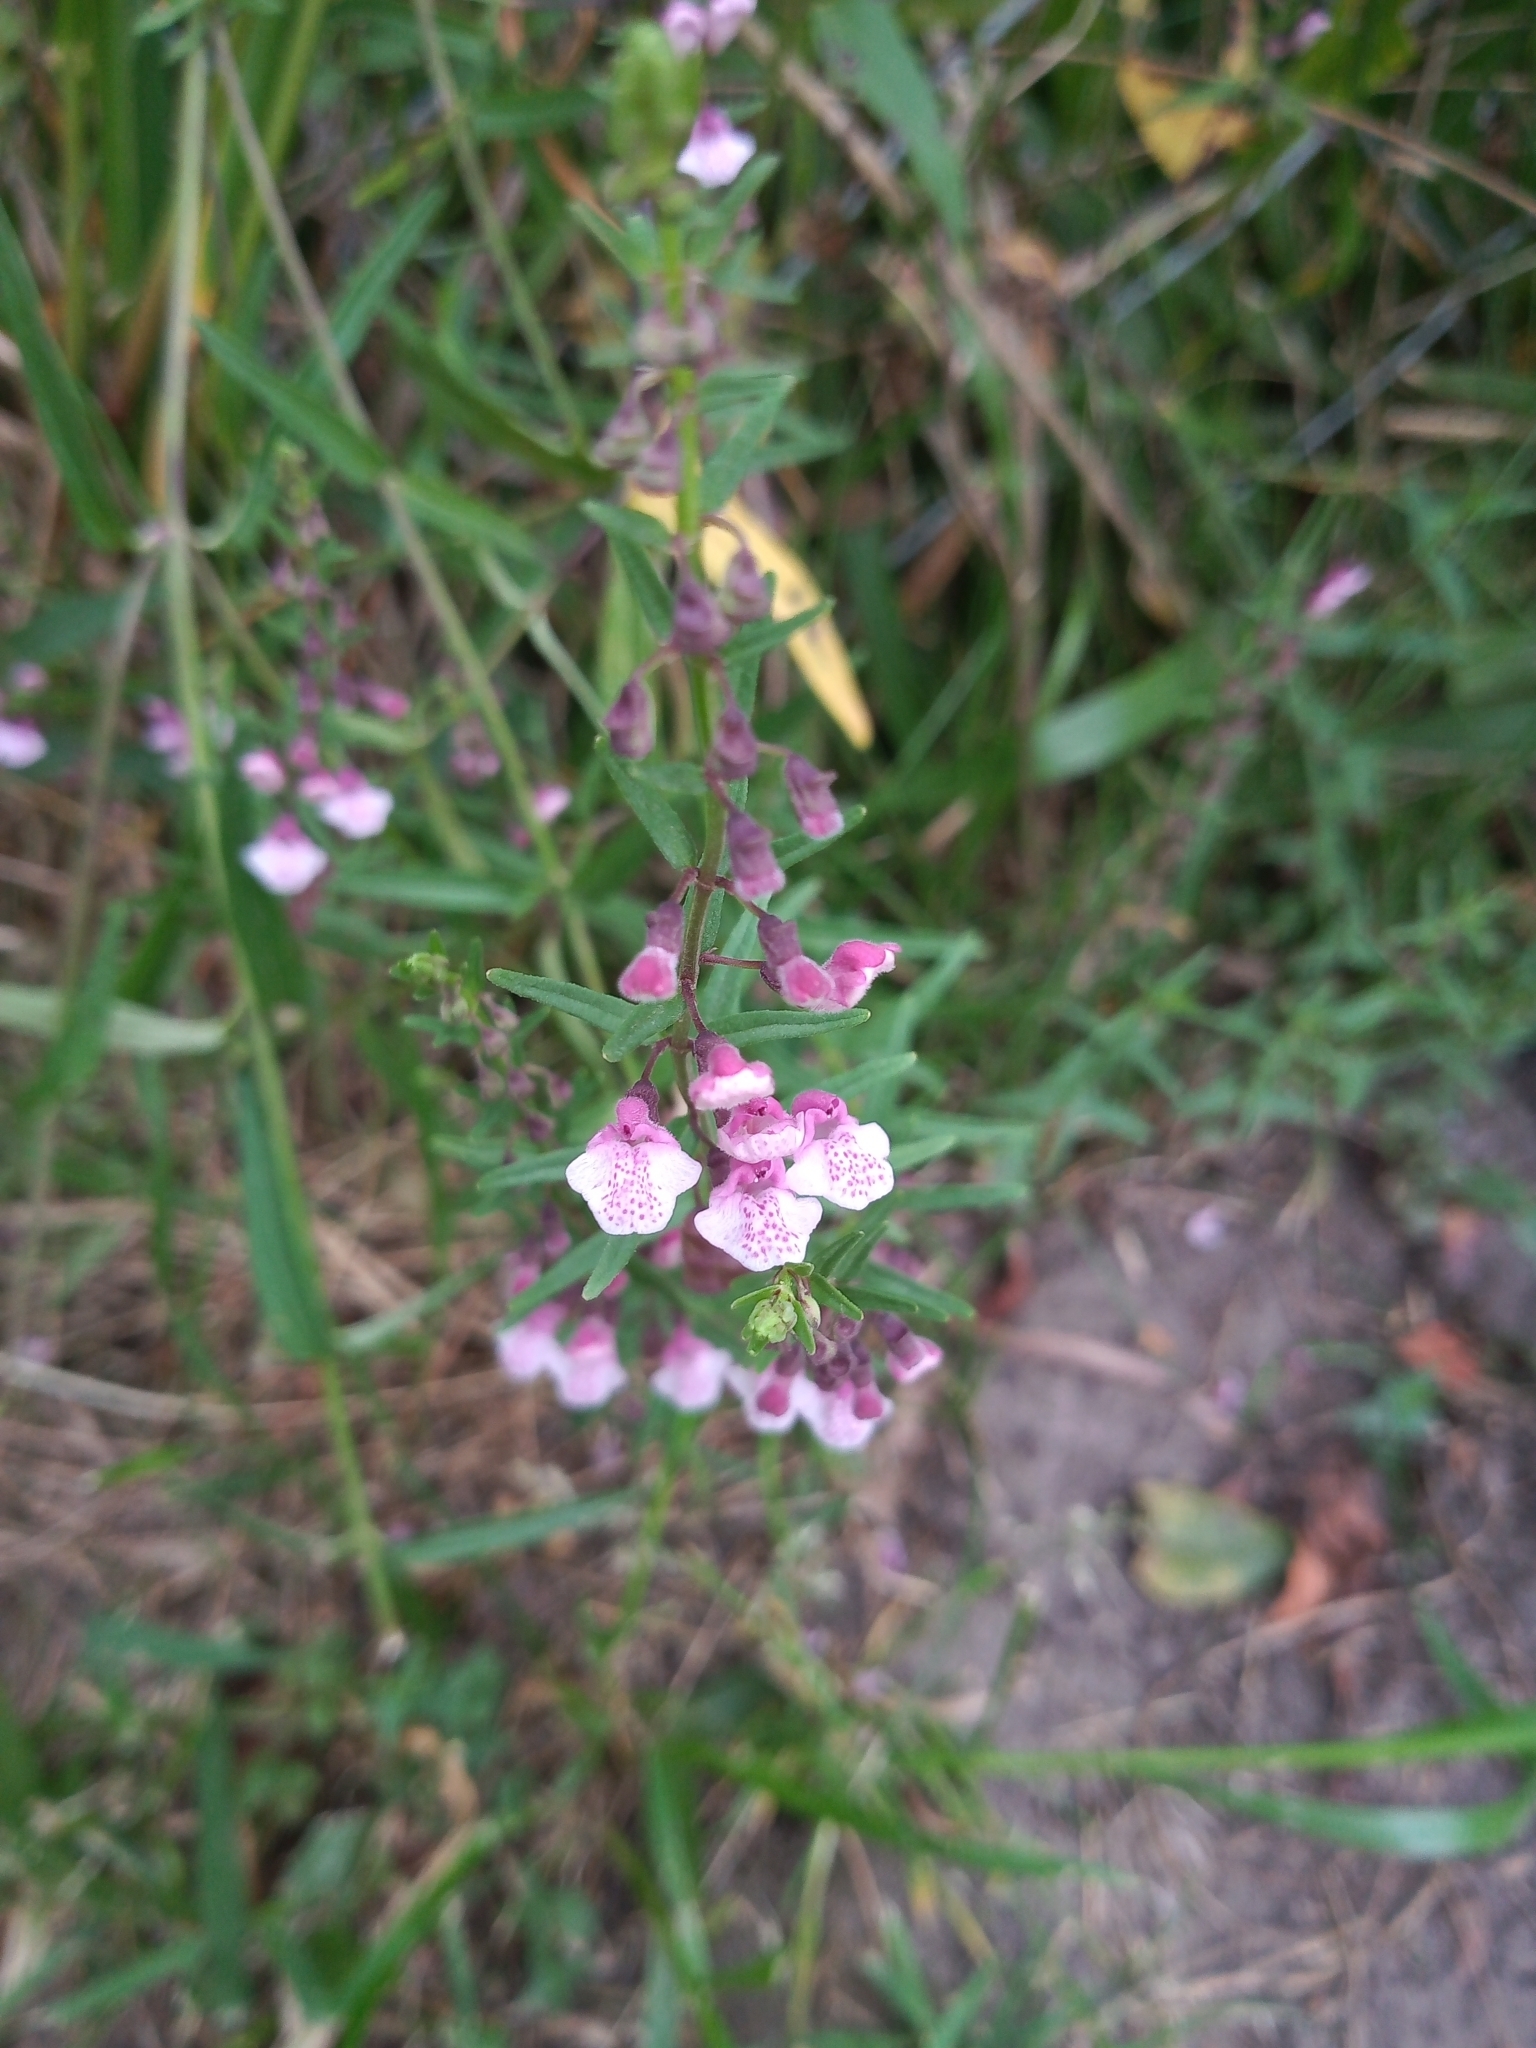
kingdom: Plantae
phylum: Tracheophyta
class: Magnoliopsida
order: Lamiales
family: Lamiaceae
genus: Scutellaria
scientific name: Scutellaria racemosa
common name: South american skullcap
